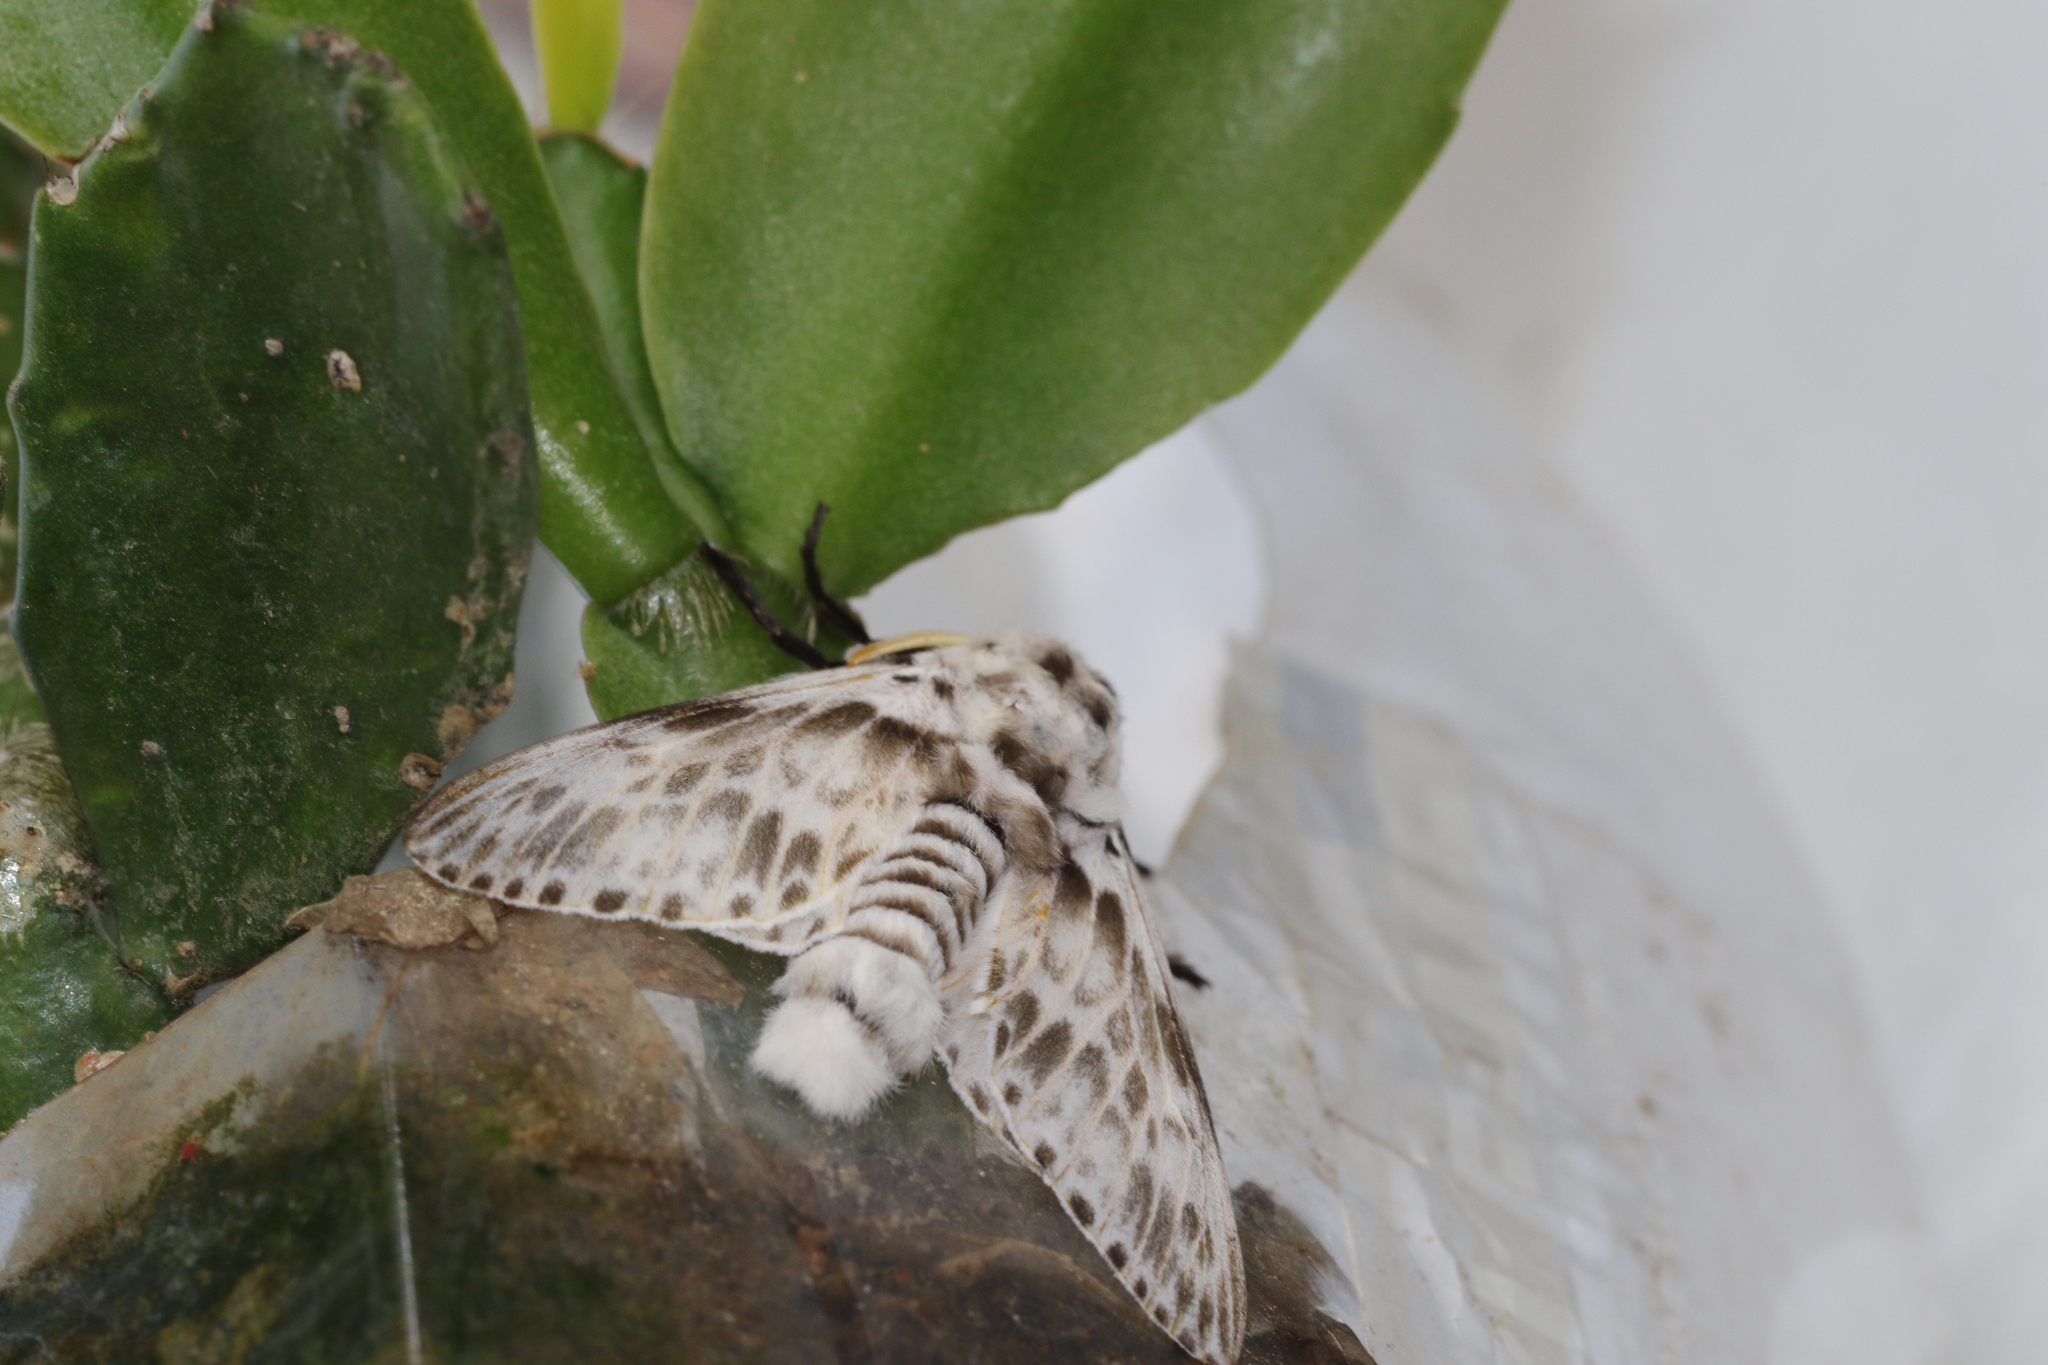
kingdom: Animalia
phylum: Arthropoda
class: Insecta
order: Lepidoptera
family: Megalopygidae
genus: Podalia
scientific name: Podalia albescens
